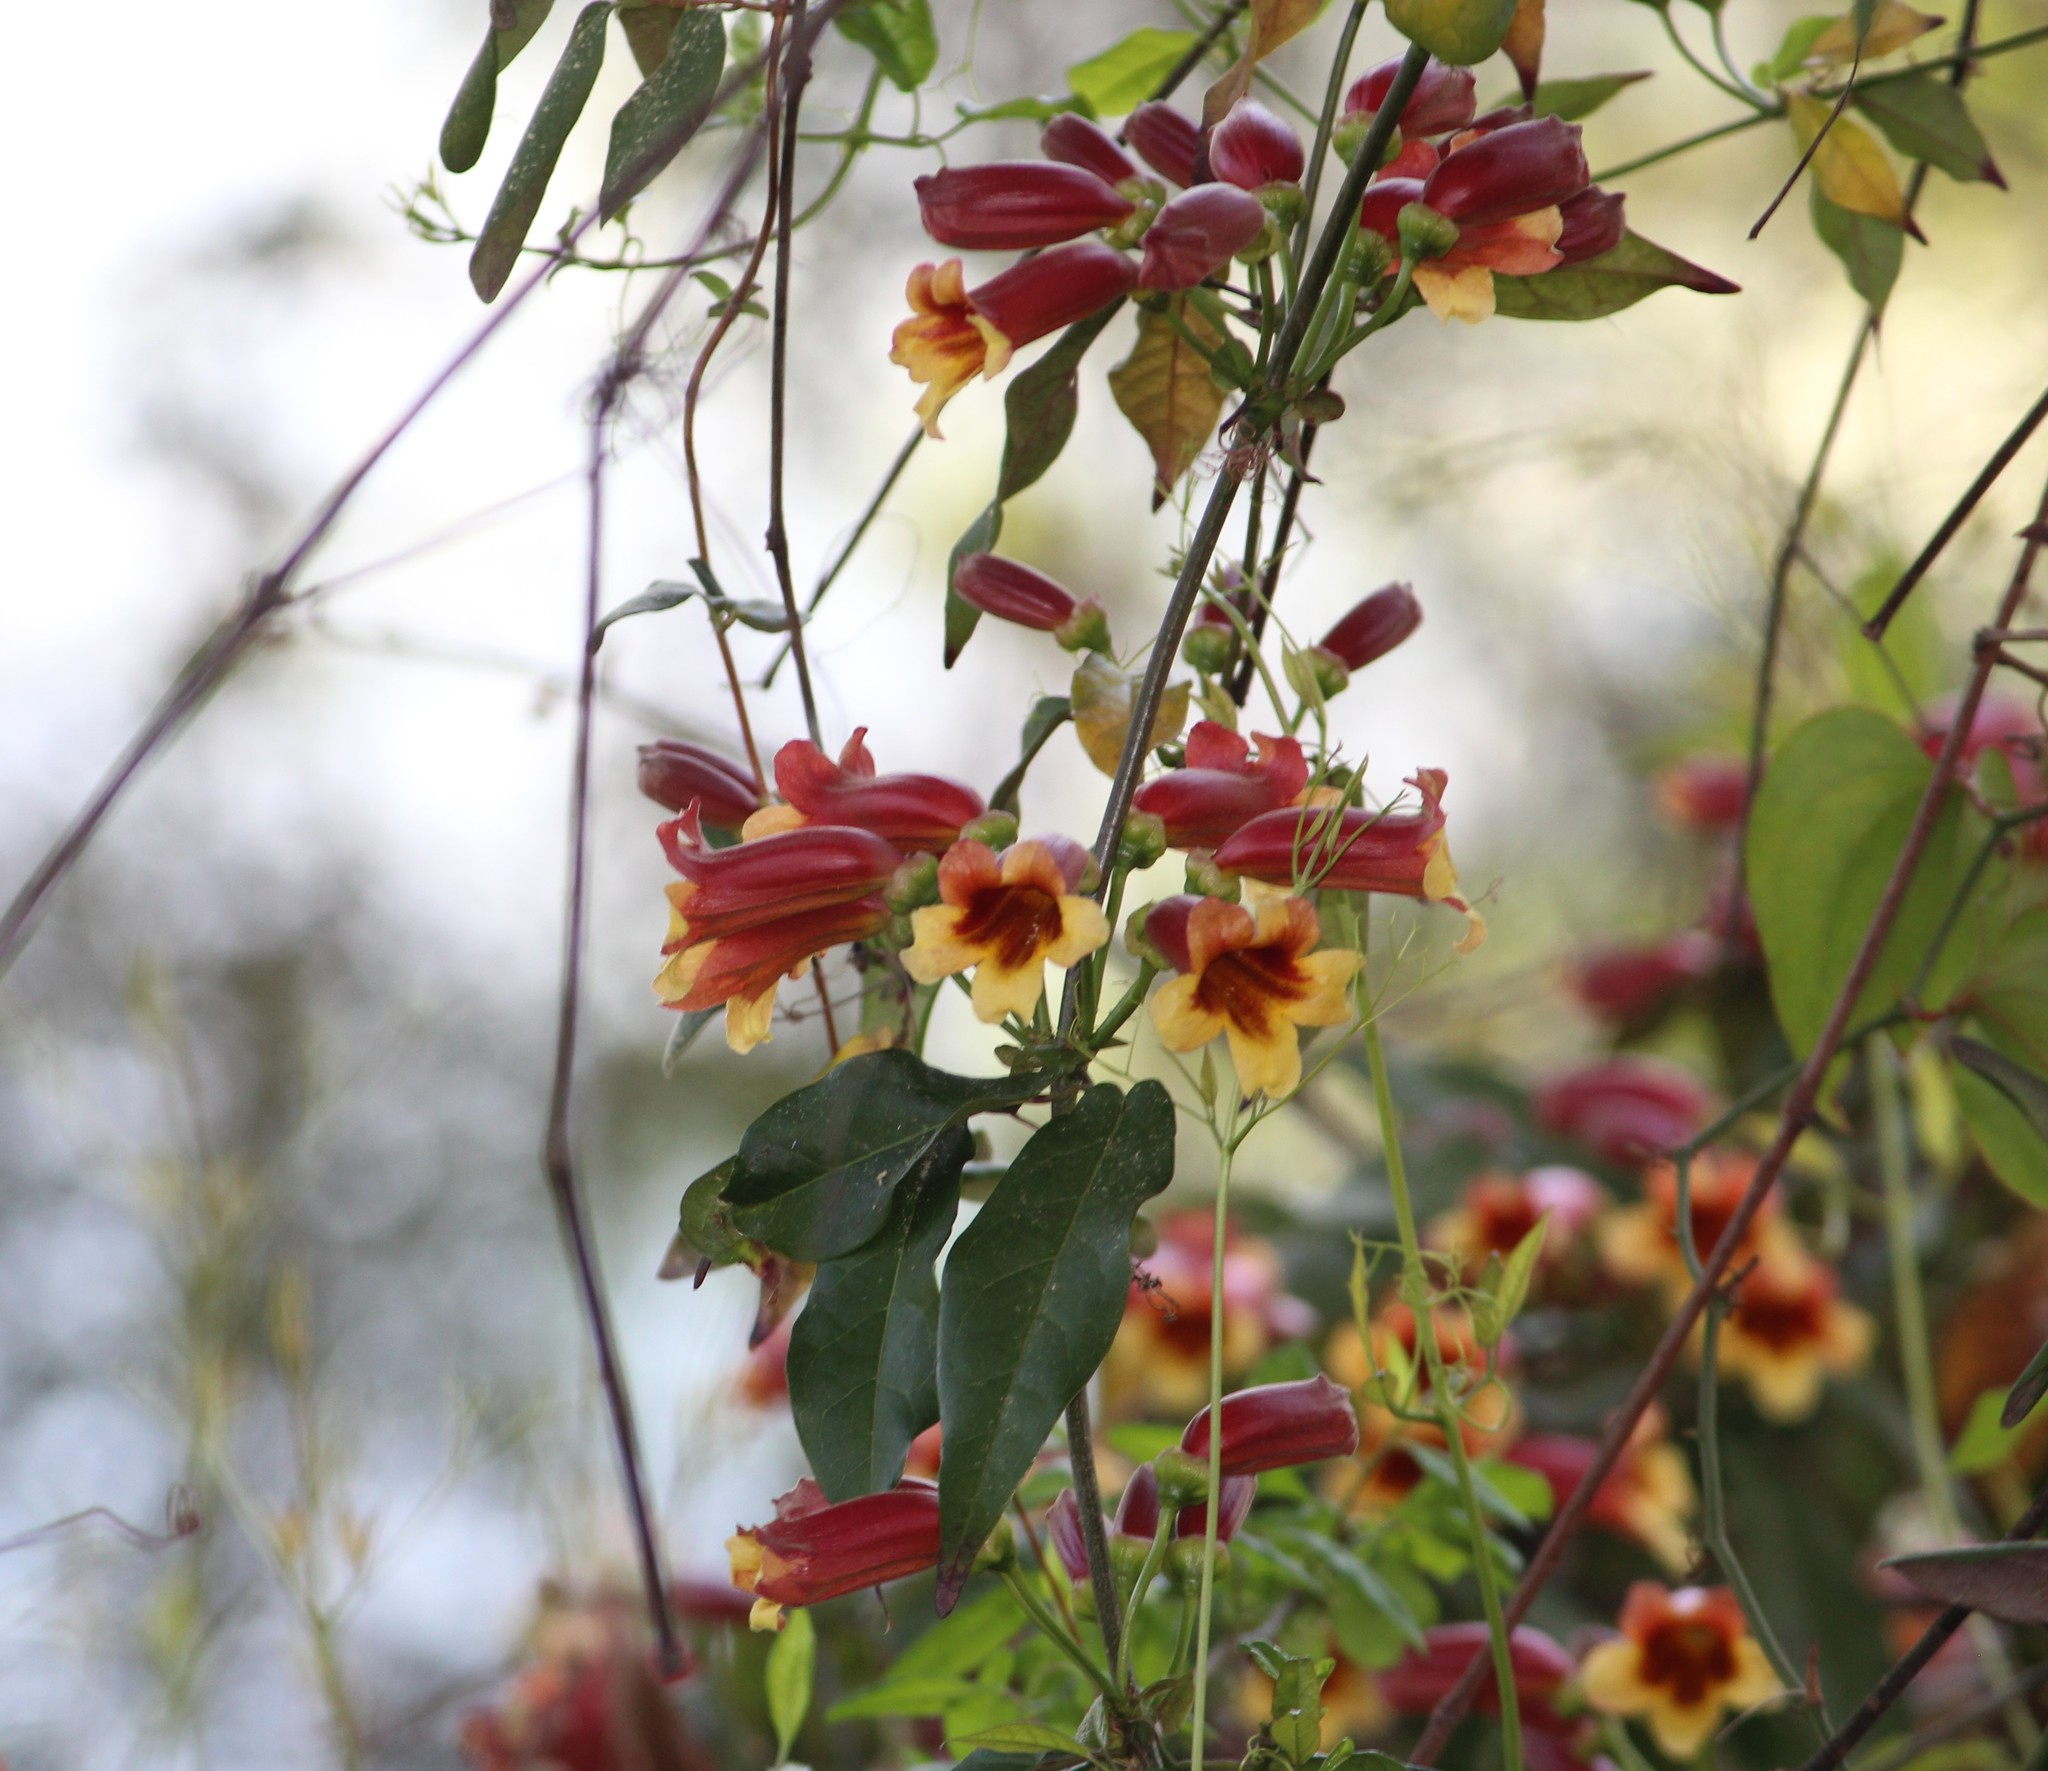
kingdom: Plantae
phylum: Tracheophyta
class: Magnoliopsida
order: Lamiales
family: Bignoniaceae
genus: Bignonia
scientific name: Bignonia capreolata
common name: Crossvine
